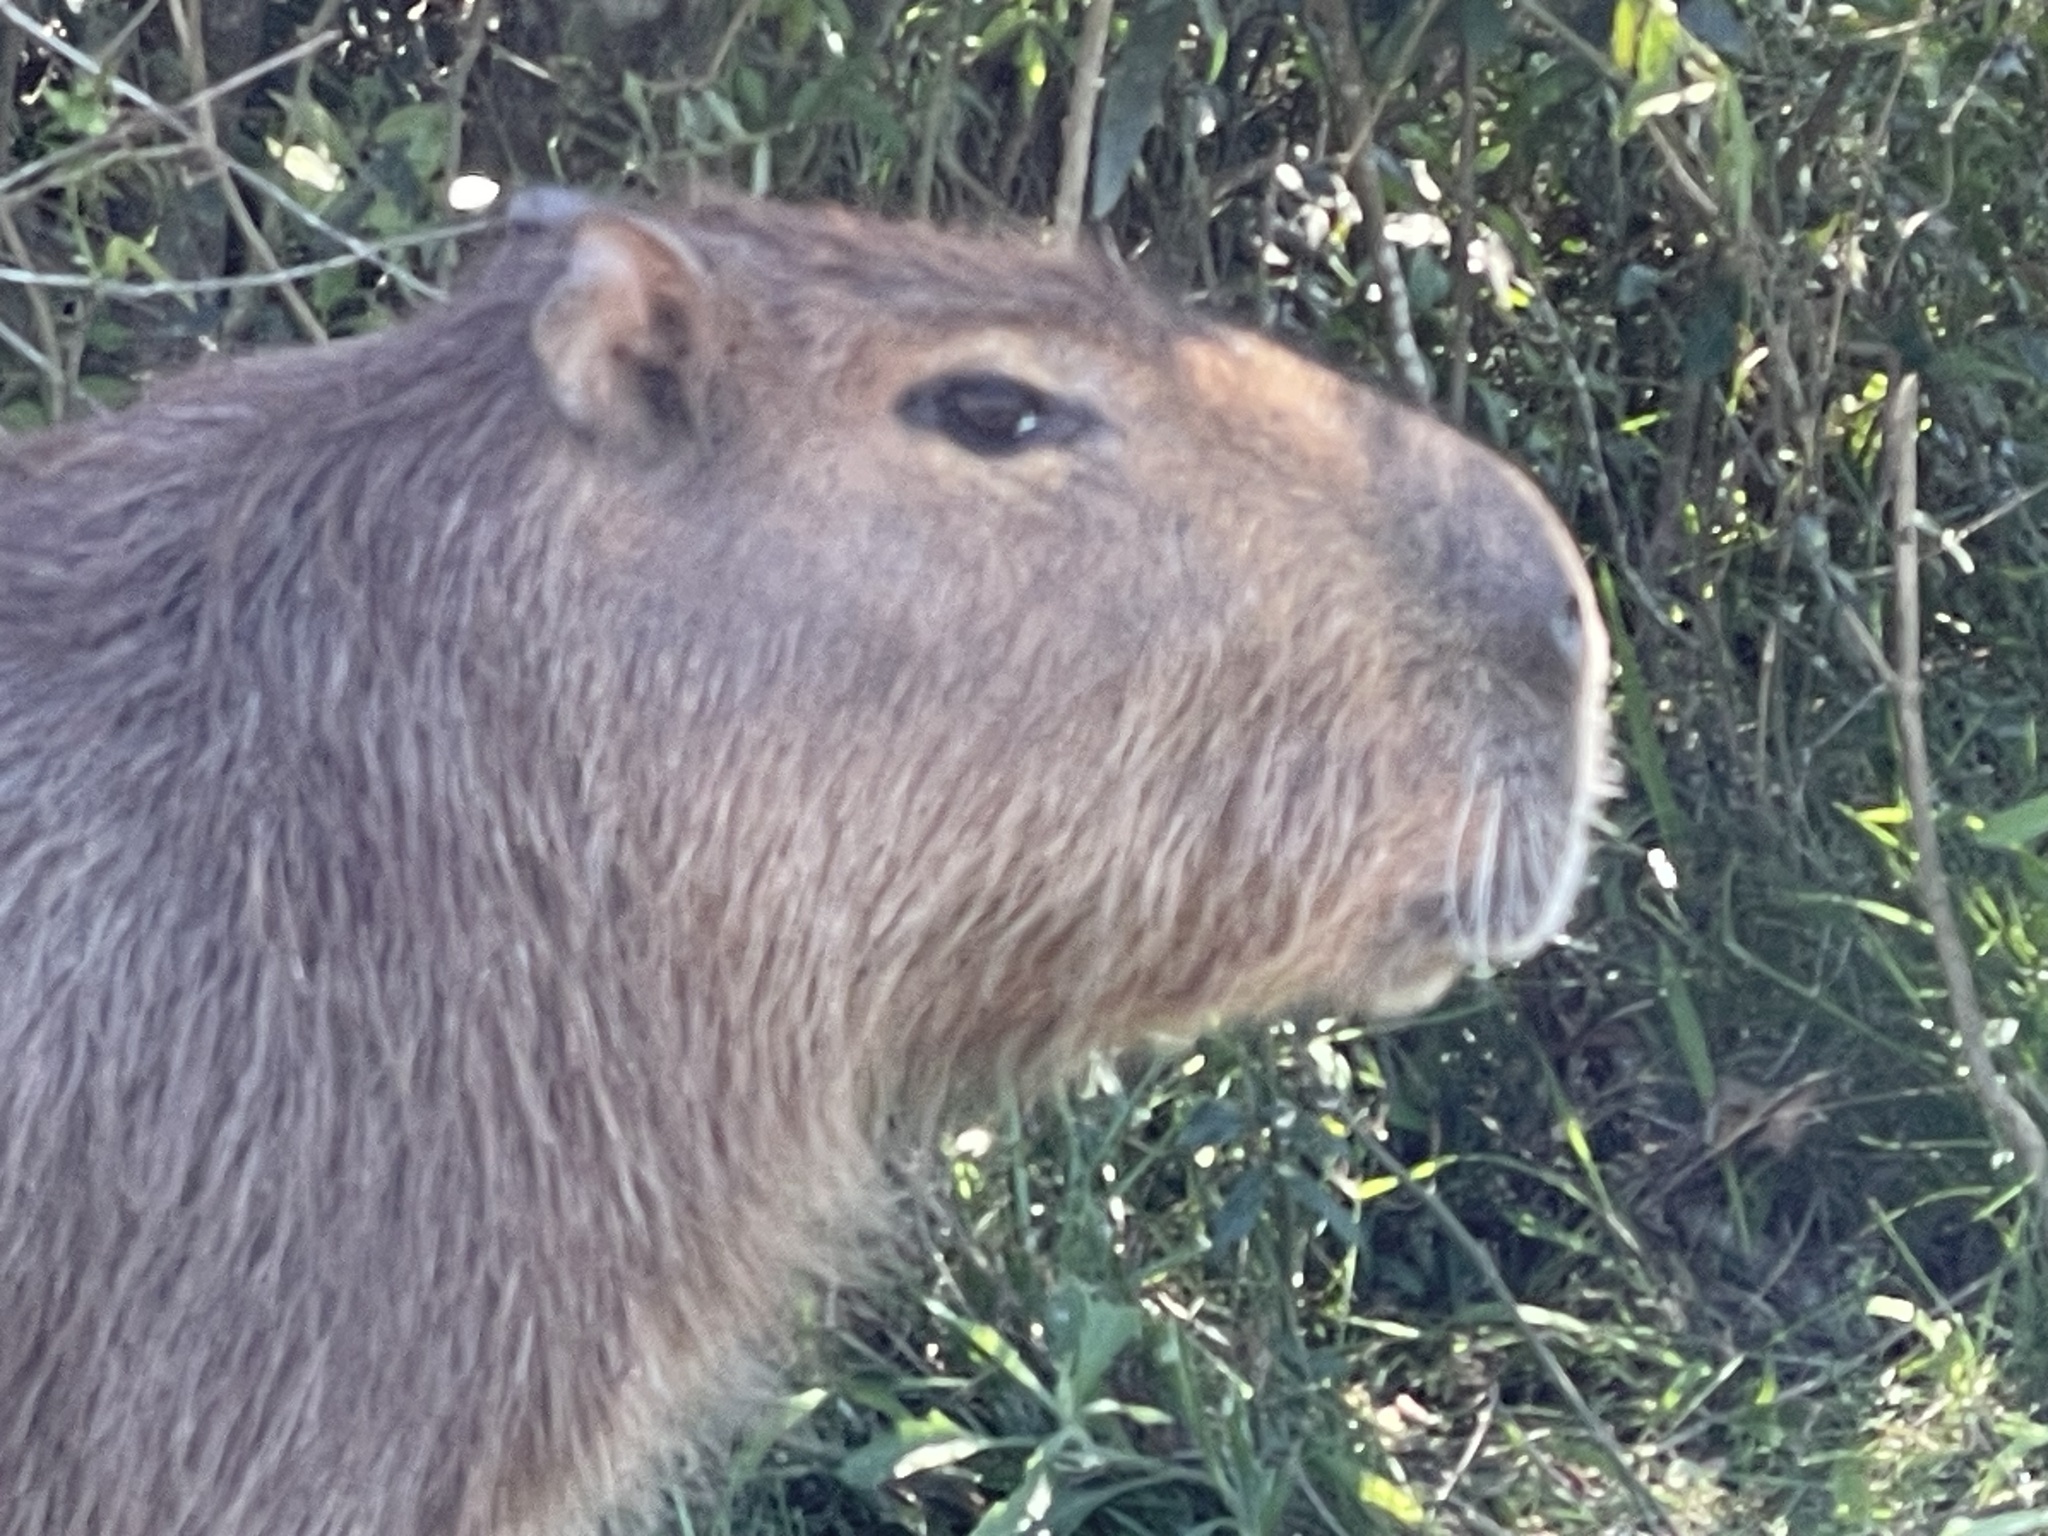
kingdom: Animalia
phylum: Chordata
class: Mammalia
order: Rodentia
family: Caviidae
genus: Hydrochoerus
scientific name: Hydrochoerus hydrochaeris
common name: Capybara
